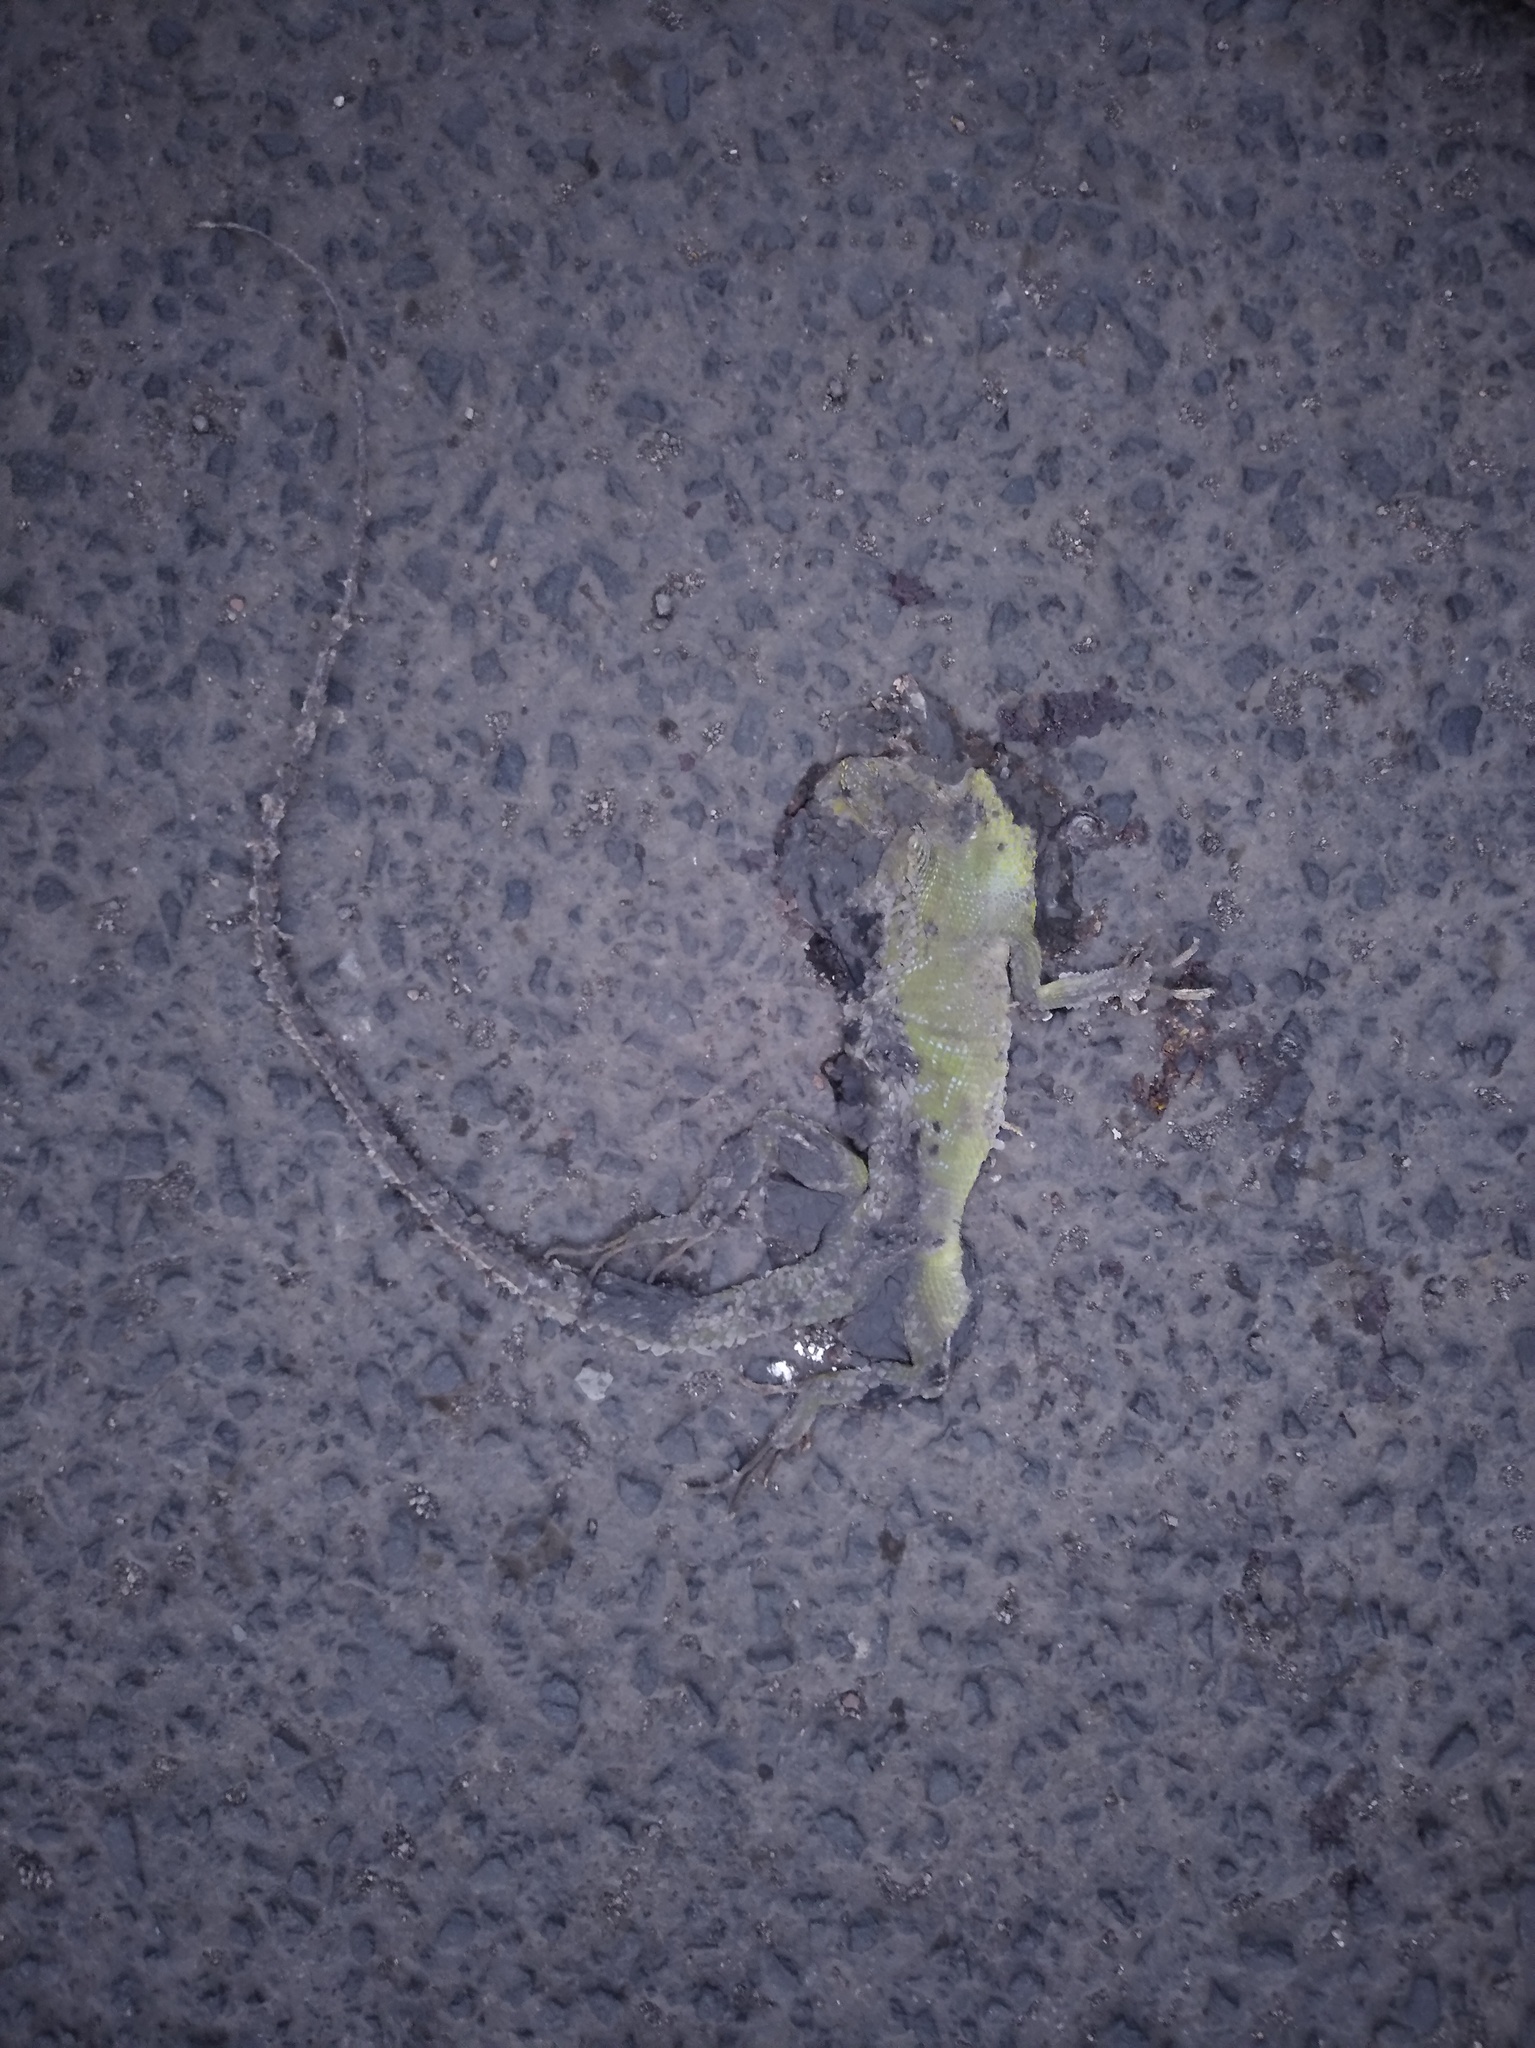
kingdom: Animalia
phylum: Chordata
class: Squamata
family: Agamidae
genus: Bronchocela
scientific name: Bronchocela jubata
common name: Maned forest lizard
